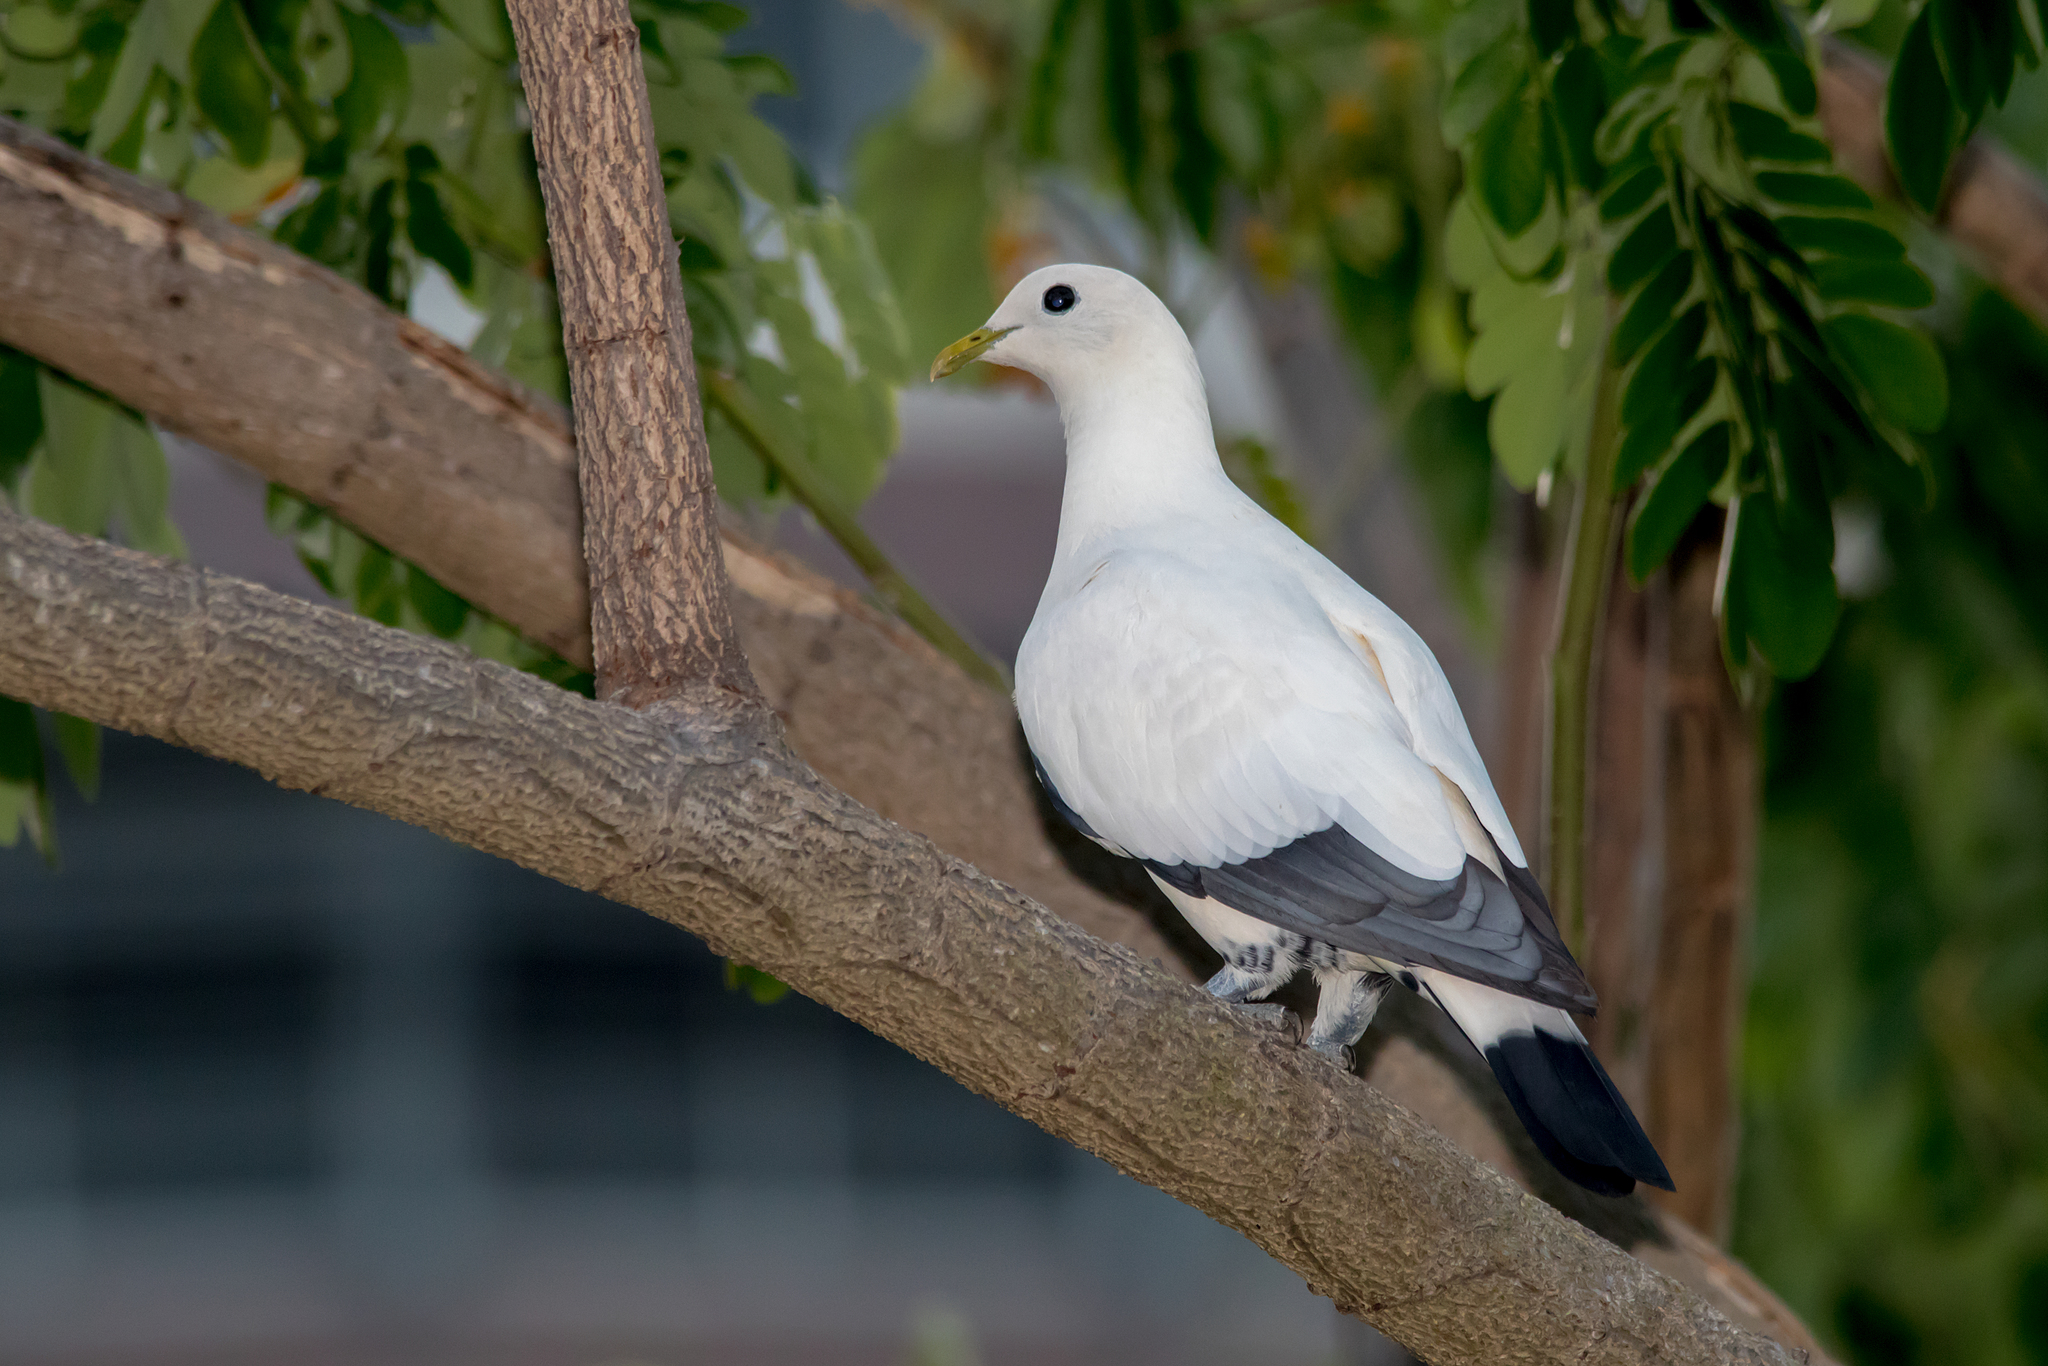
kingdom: Animalia
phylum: Chordata
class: Aves
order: Columbiformes
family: Columbidae
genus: Ducula
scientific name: Ducula spilorrhoa
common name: Torresian imperial pigeon
